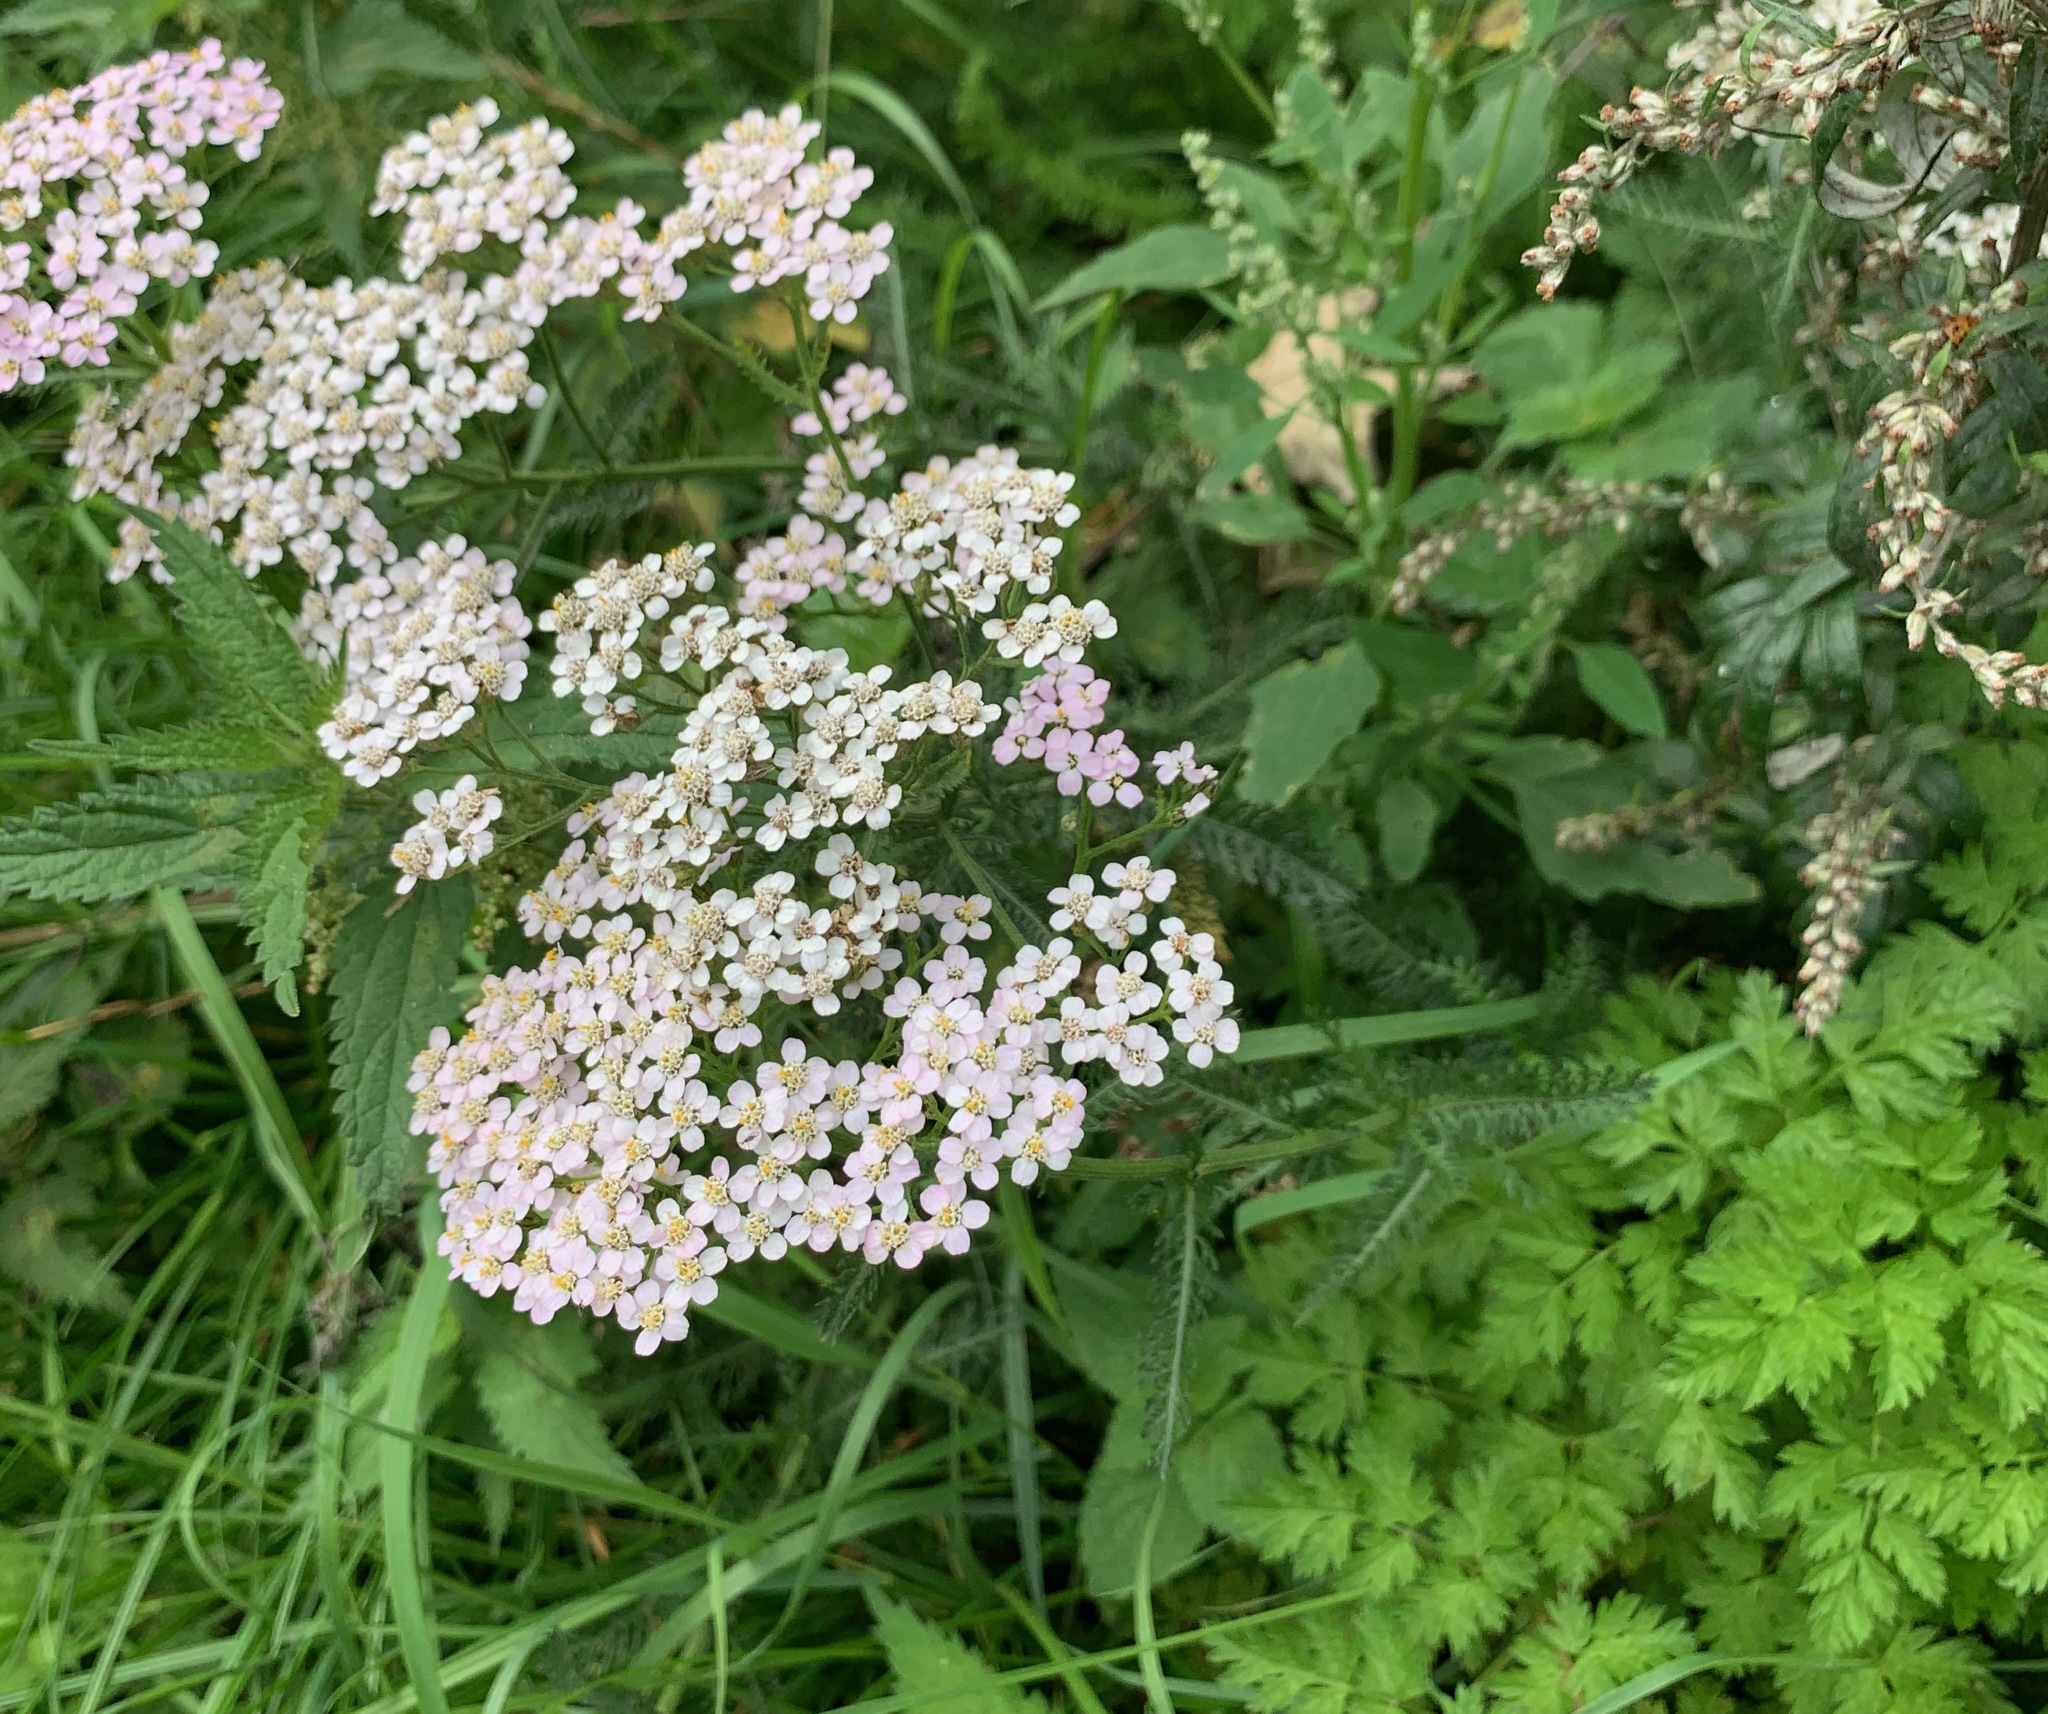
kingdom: Plantae
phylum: Tracheophyta
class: Magnoliopsida
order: Asterales
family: Asteraceae
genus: Achillea
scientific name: Achillea millefolium
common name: Yarrow
